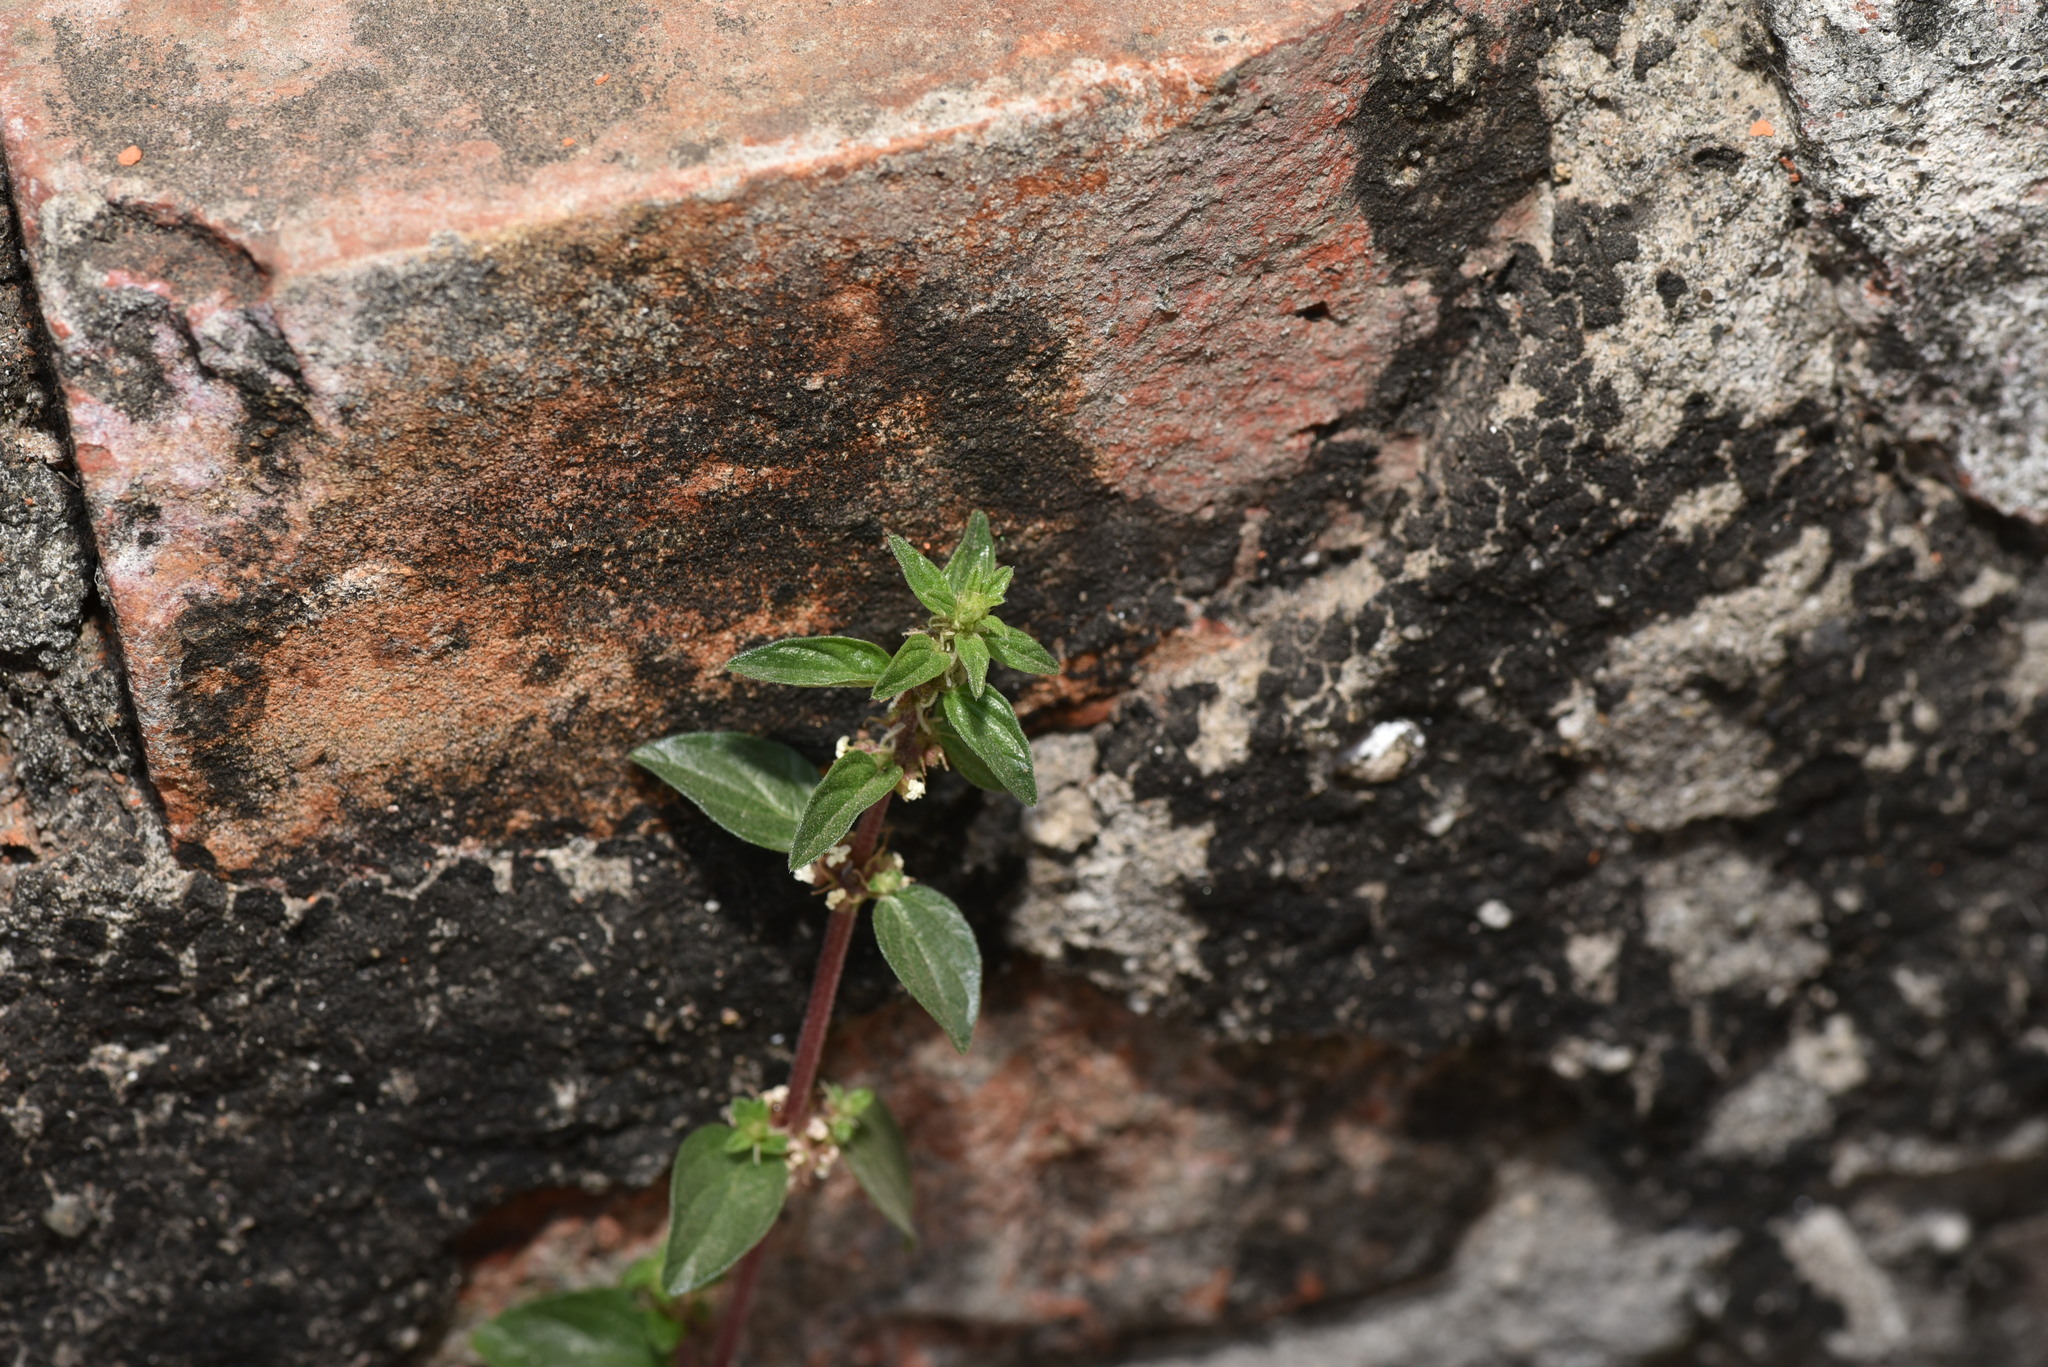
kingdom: Plantae
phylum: Tracheophyta
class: Magnoliopsida
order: Rosales
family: Urticaceae
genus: Pouzolzia
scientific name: Pouzolzia zeylanica
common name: Graceful pouzolzsbush
